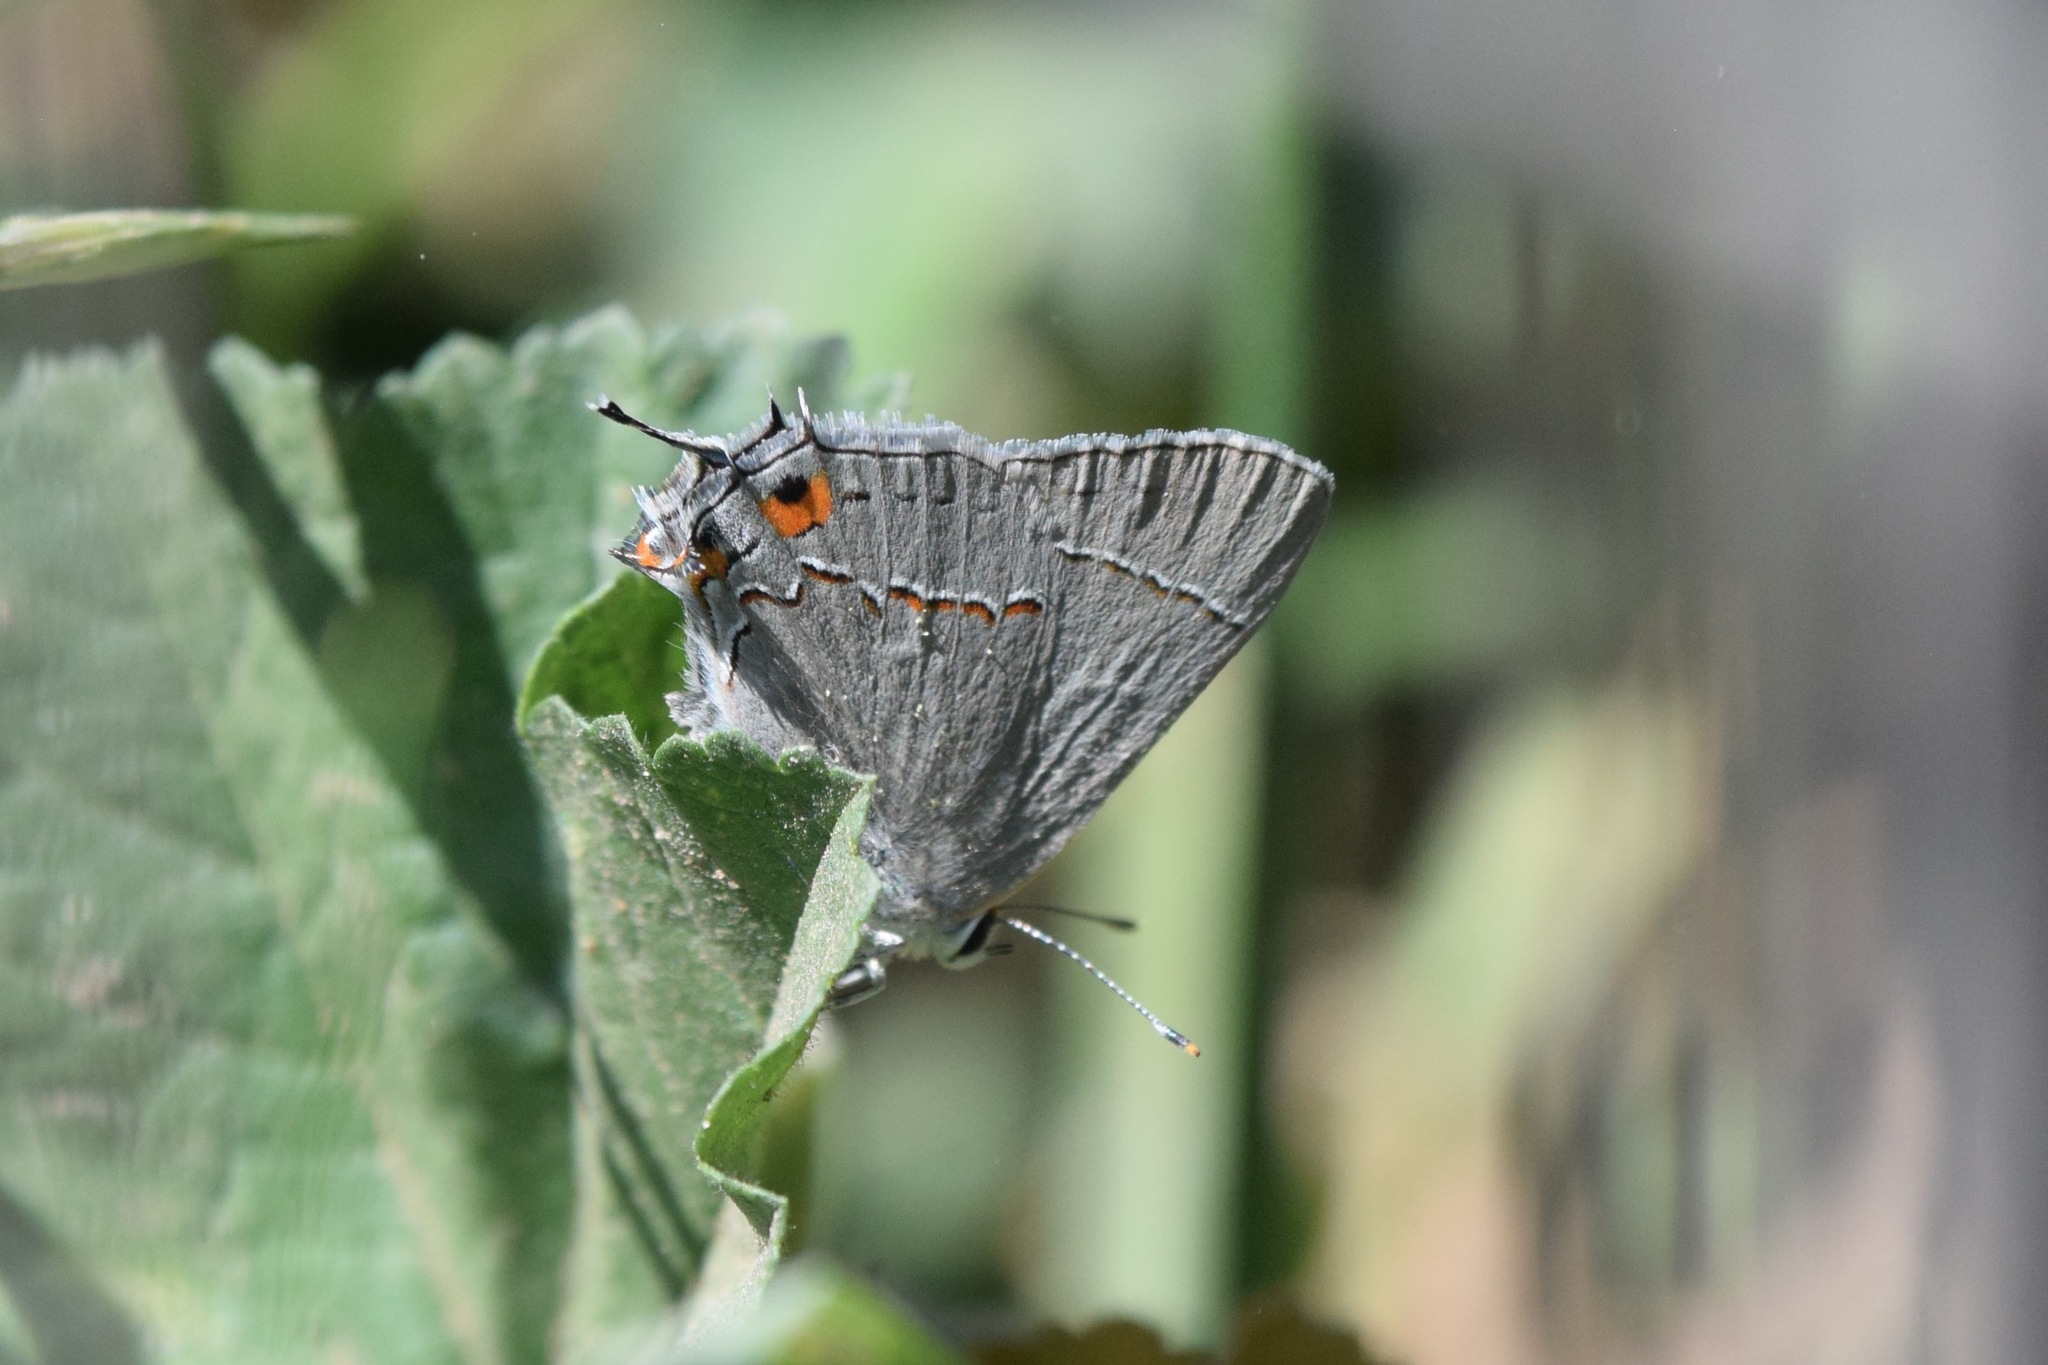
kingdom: Animalia
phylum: Arthropoda
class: Insecta
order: Lepidoptera
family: Lycaenidae
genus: Strymon
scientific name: Strymon melinus
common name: Gray hairstreak
